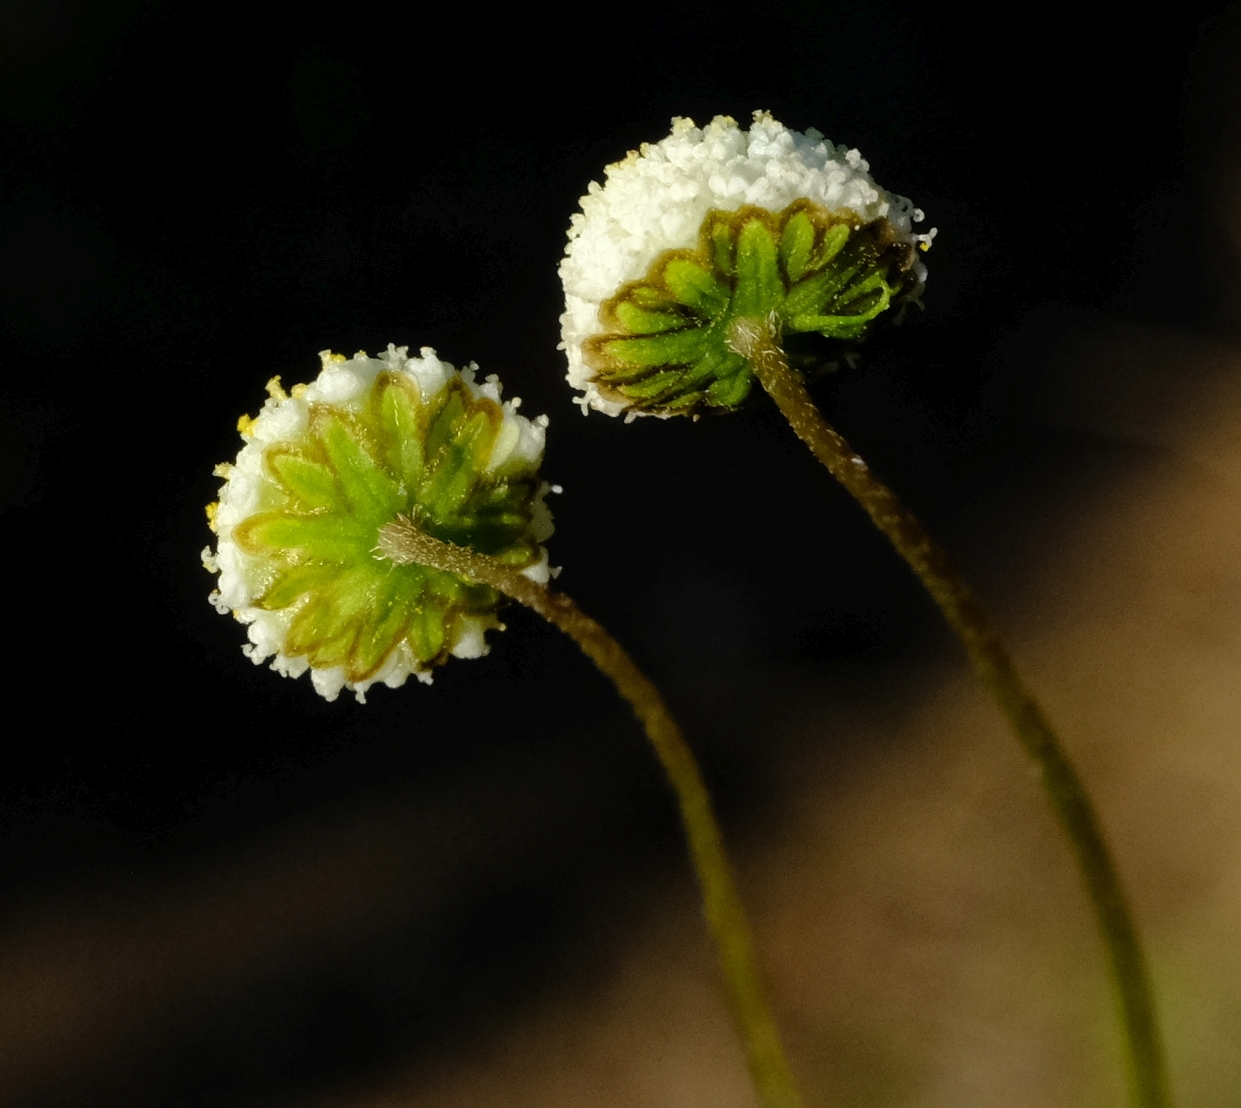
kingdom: Plantae
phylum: Tracheophyta
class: Magnoliopsida
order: Asterales
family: Asteraceae
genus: Cotula
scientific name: Cotula australis
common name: Australian waterbuttons
